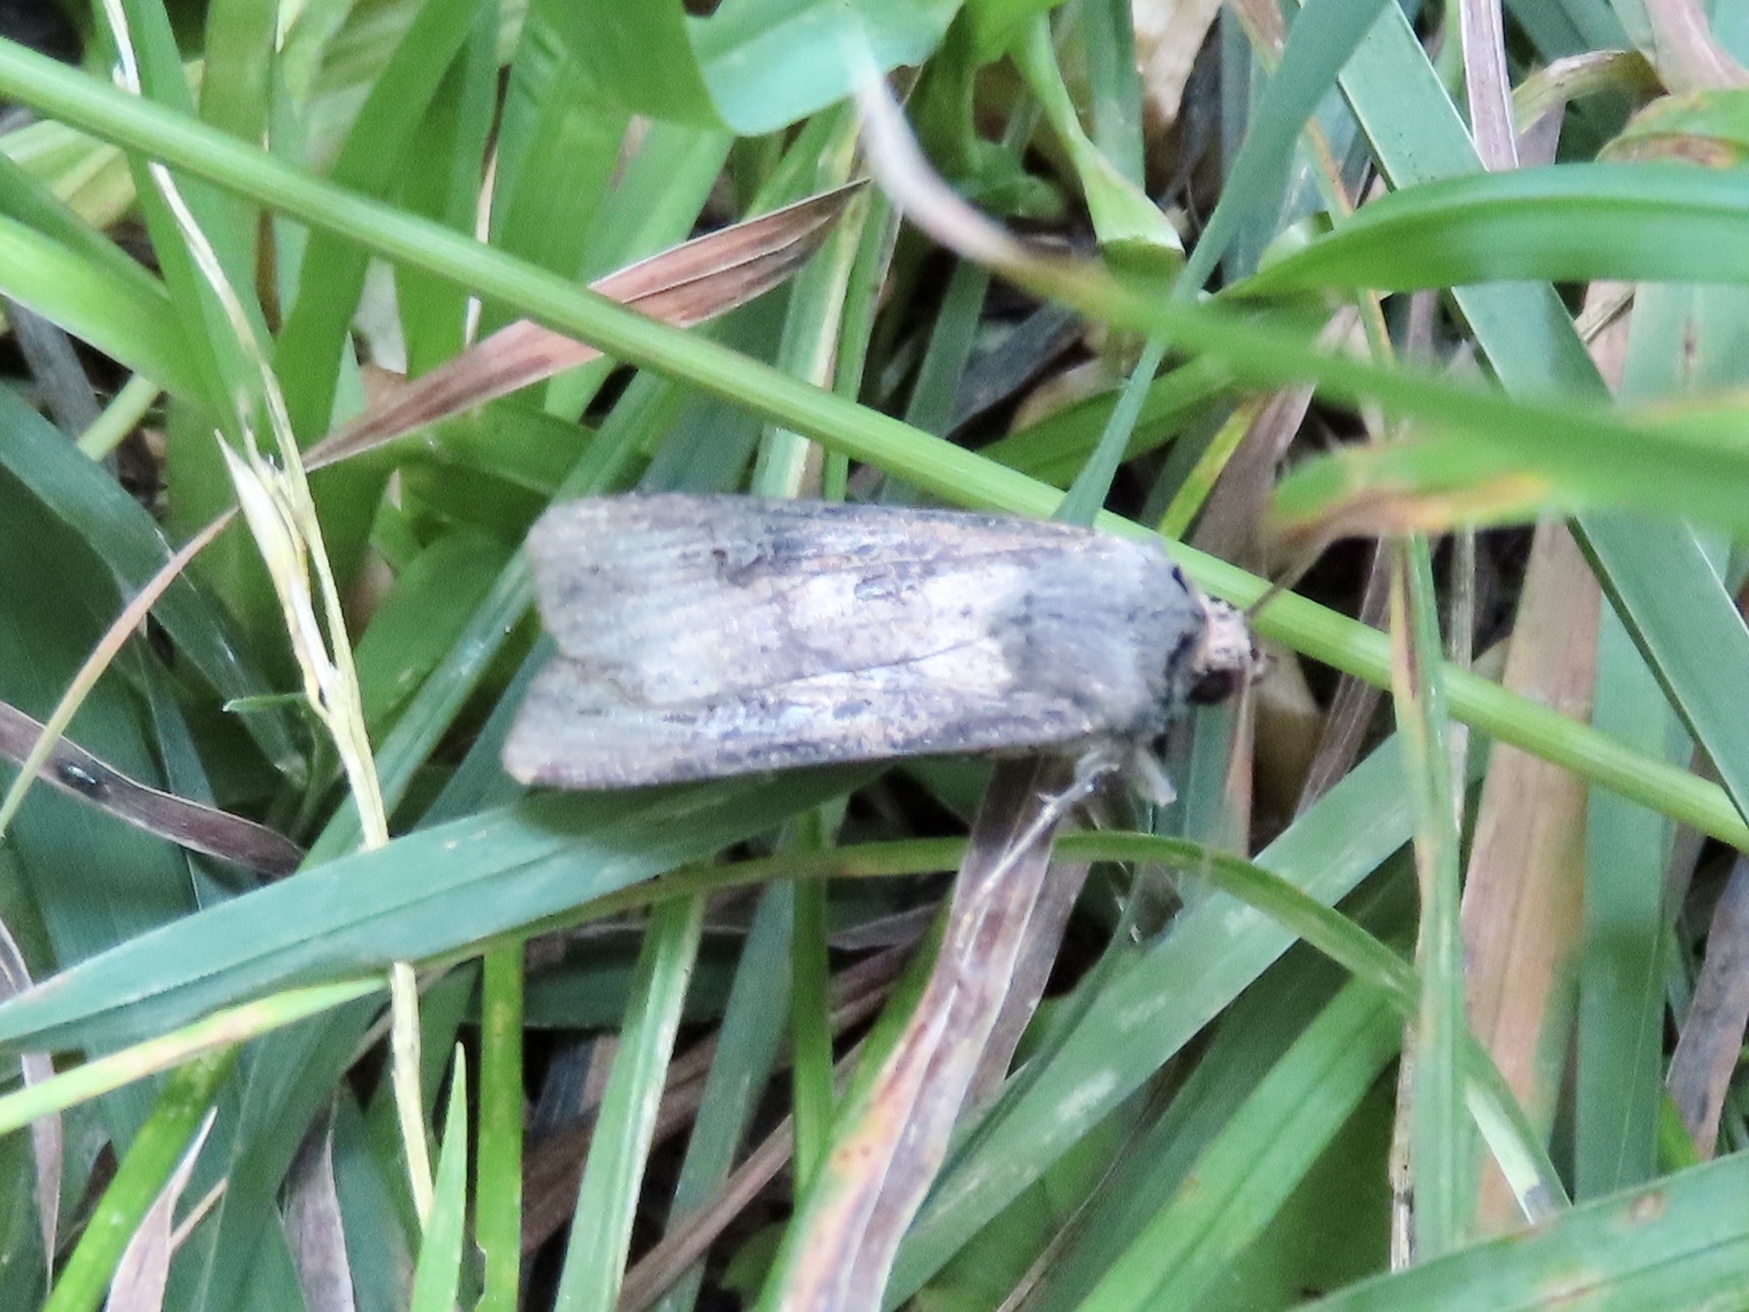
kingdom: Animalia
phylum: Arthropoda
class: Insecta
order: Lepidoptera
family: Noctuidae
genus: Agrotis
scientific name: Agrotis ipsilon
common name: Dark sword-grass
